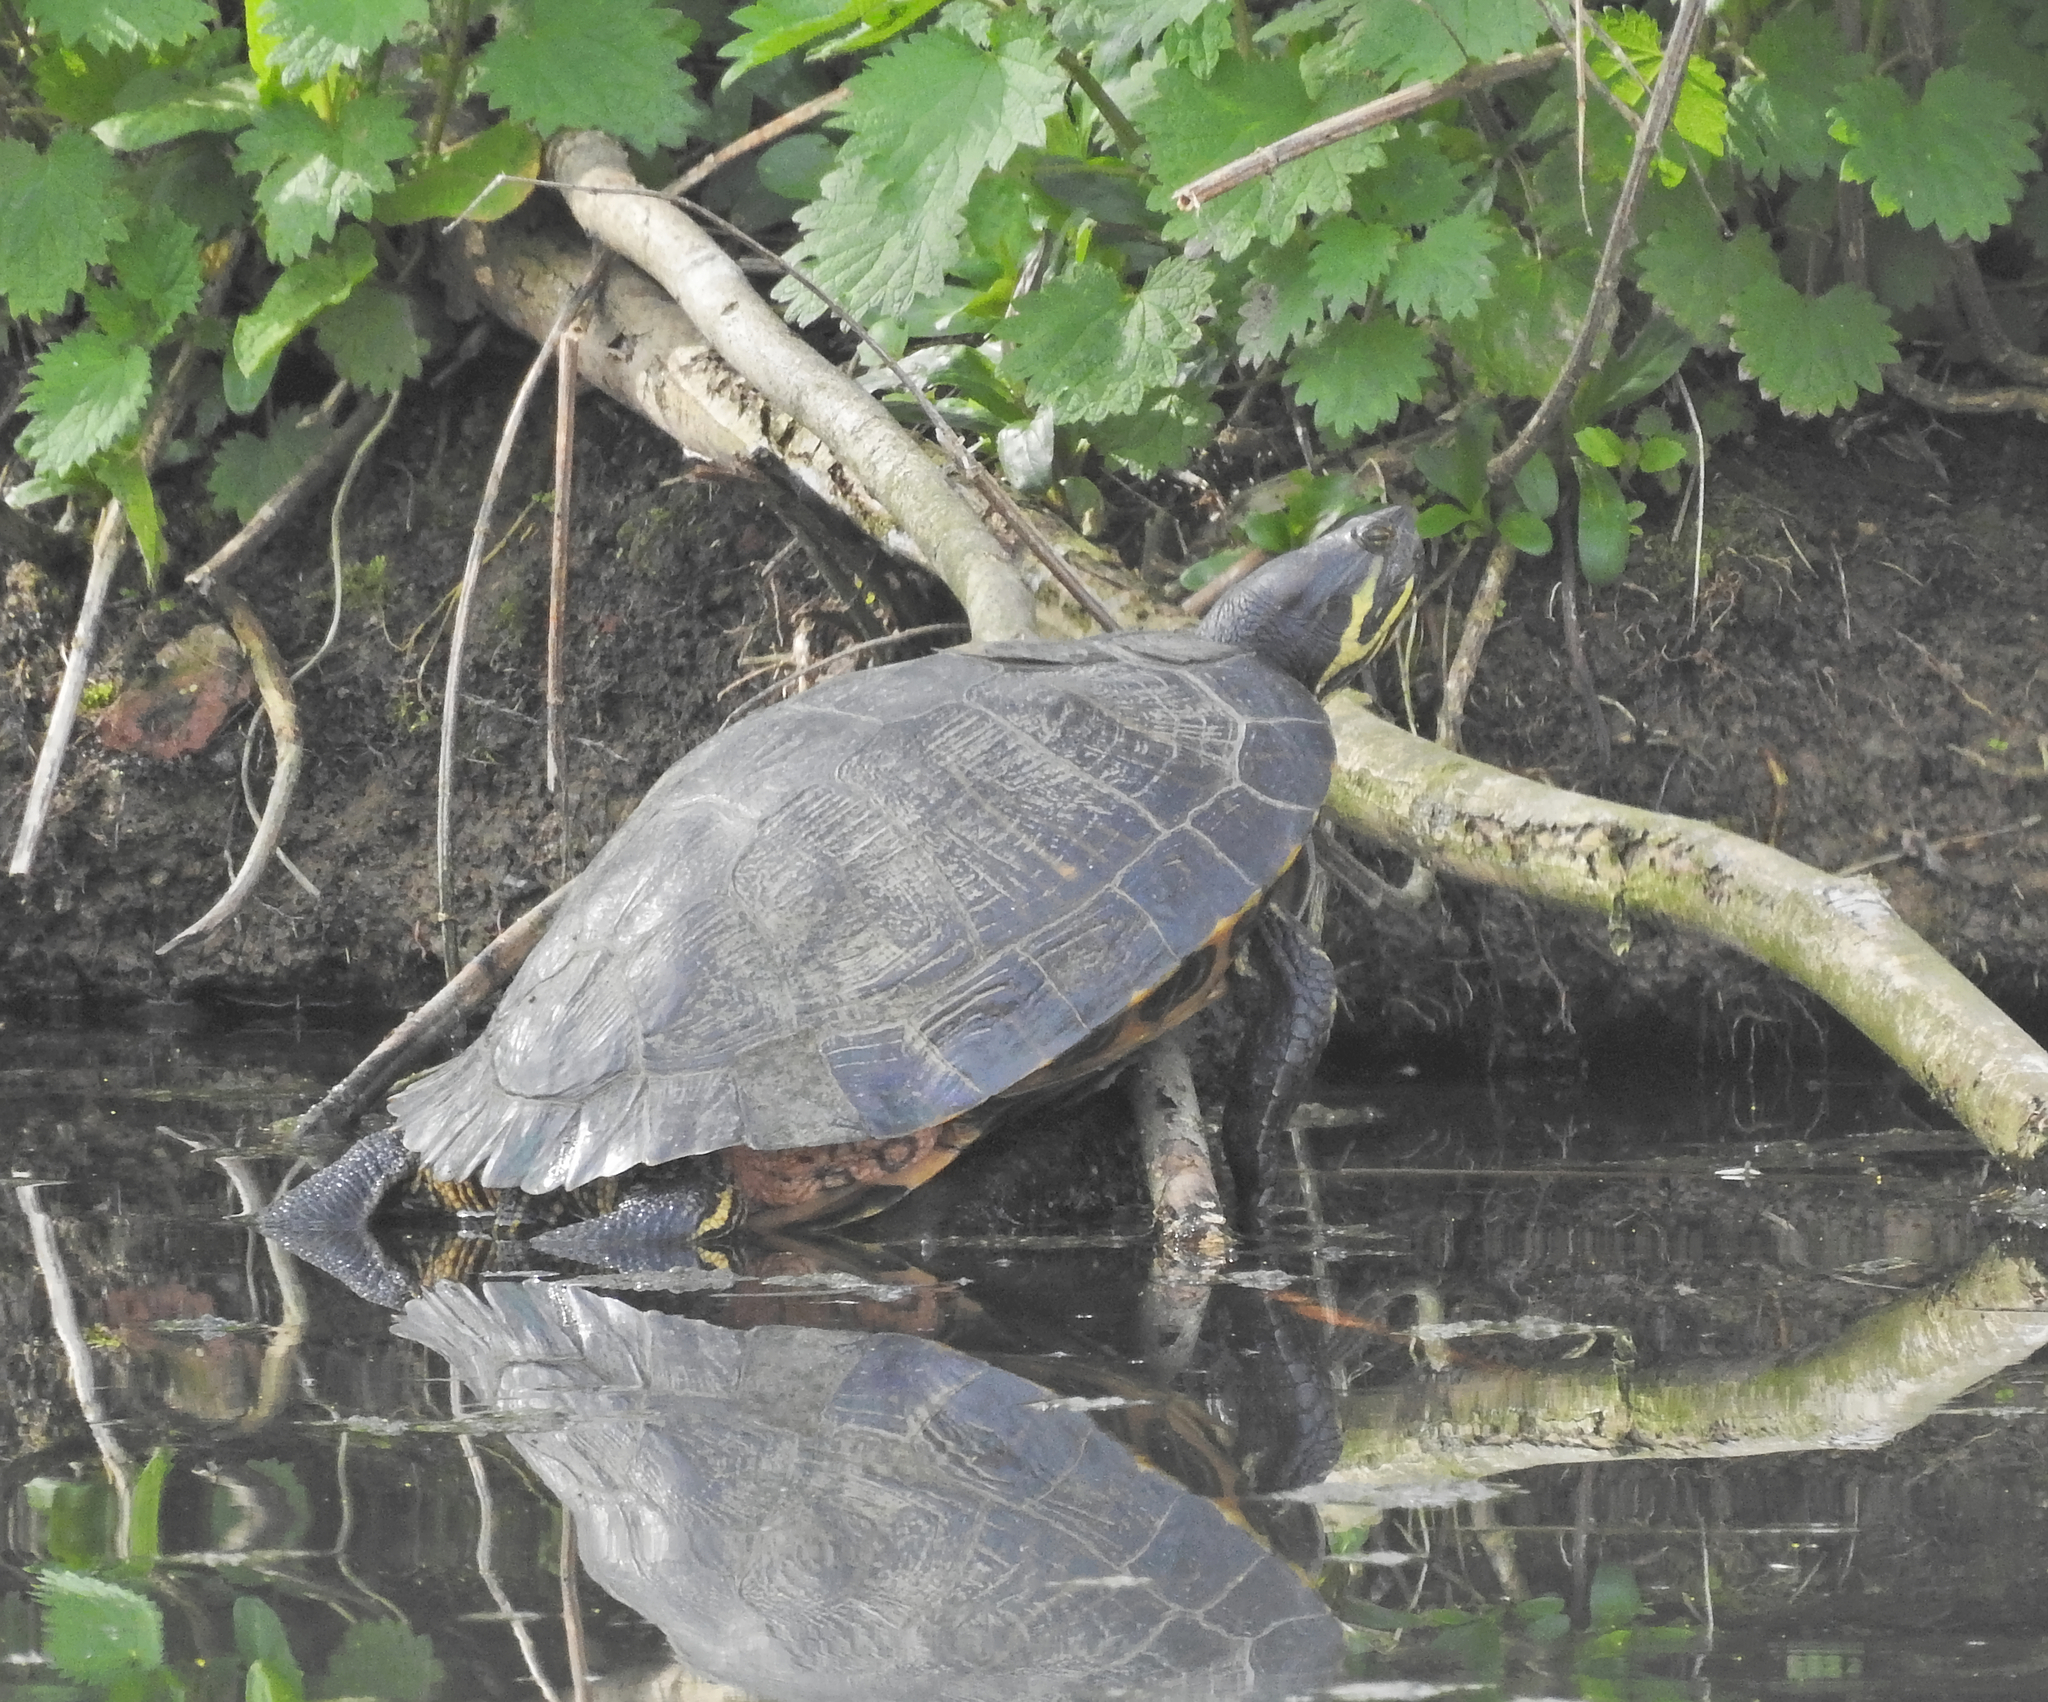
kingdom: Animalia
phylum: Chordata
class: Testudines
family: Emydidae
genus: Trachemys
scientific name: Trachemys scripta
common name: Slider
